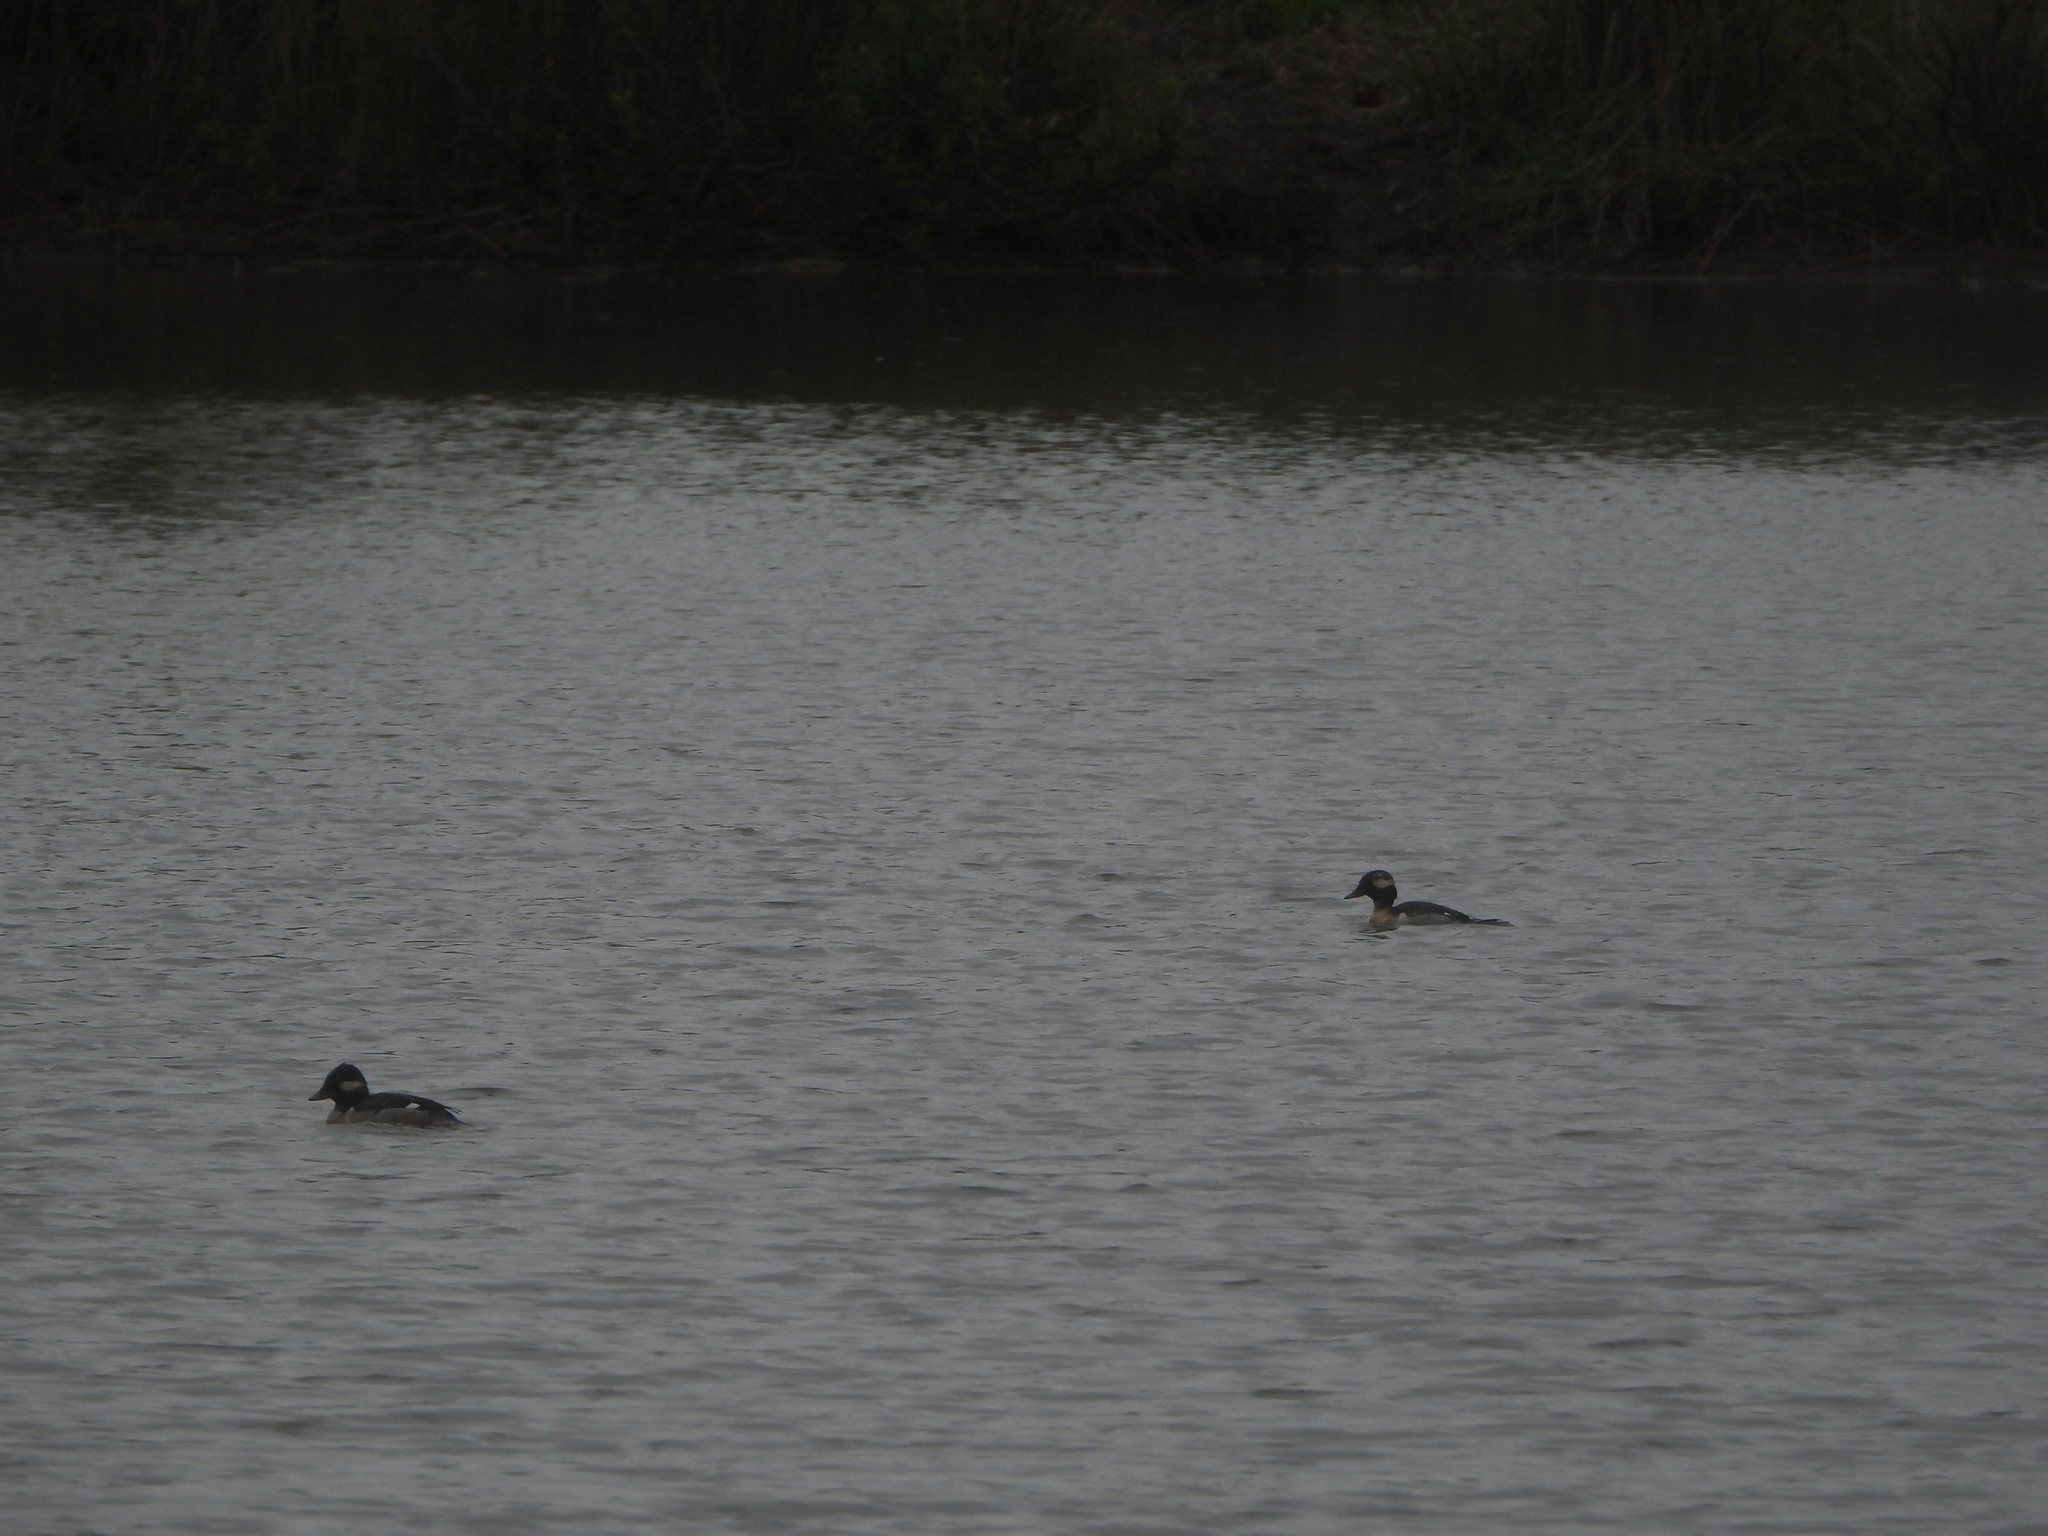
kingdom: Animalia
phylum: Chordata
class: Aves
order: Anseriformes
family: Anatidae
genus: Bucephala
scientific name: Bucephala albeola
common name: Bufflehead
